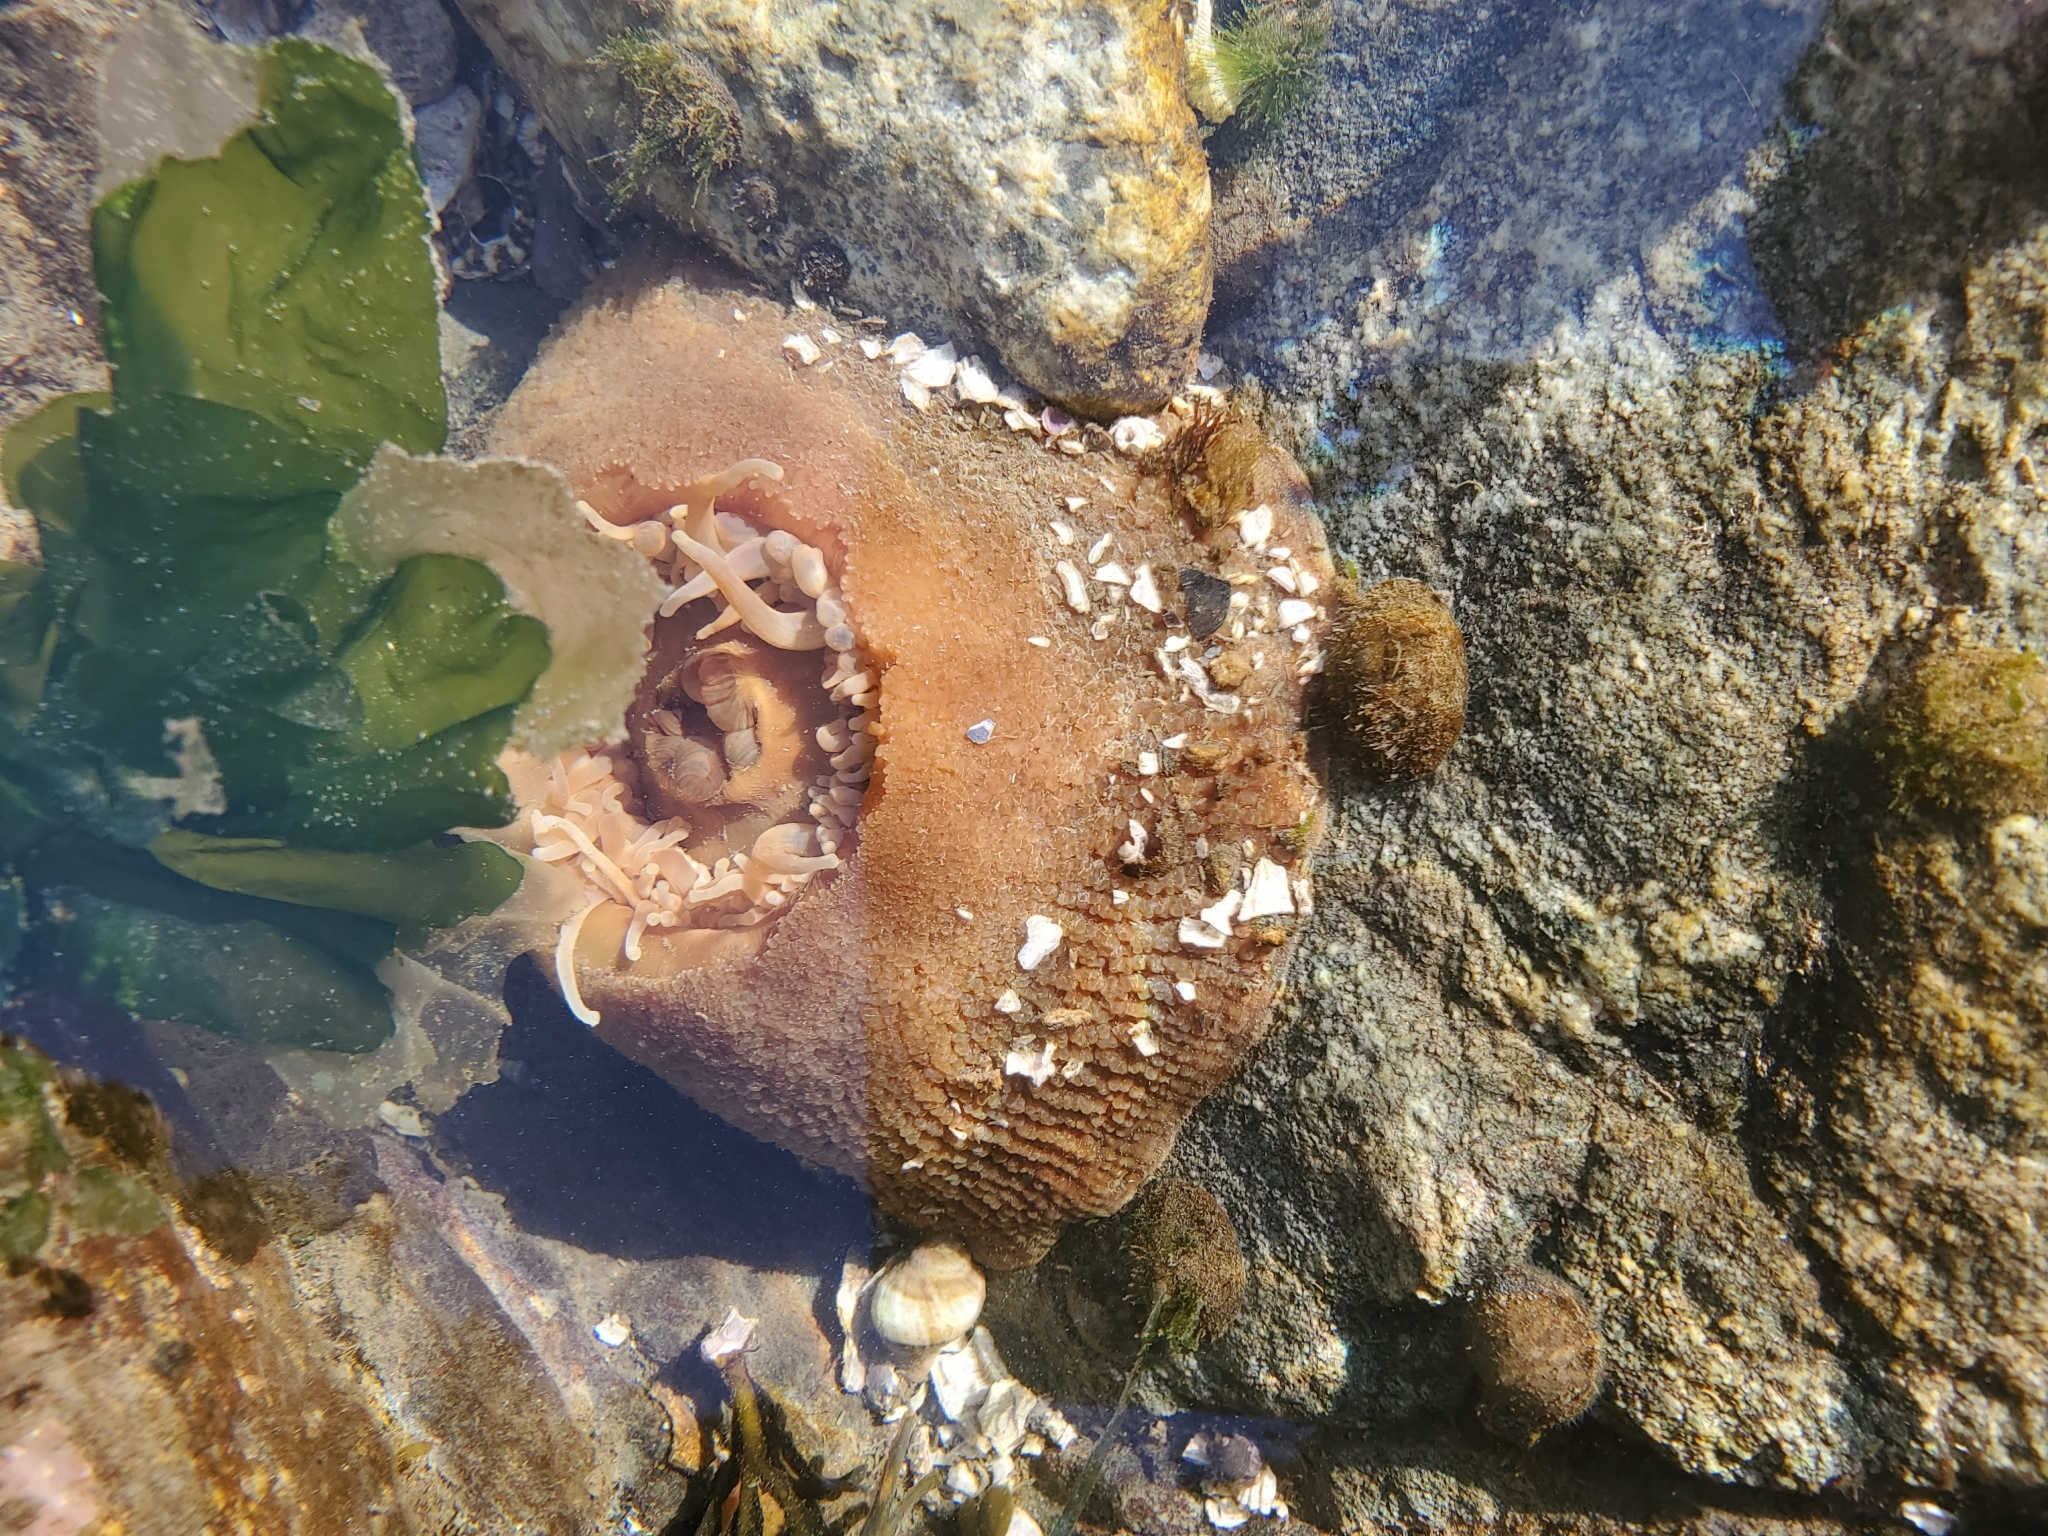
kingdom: Animalia
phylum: Cnidaria
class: Anthozoa
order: Actiniaria
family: Actiniidae
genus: Urticina
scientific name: Urticina grebelnyi
